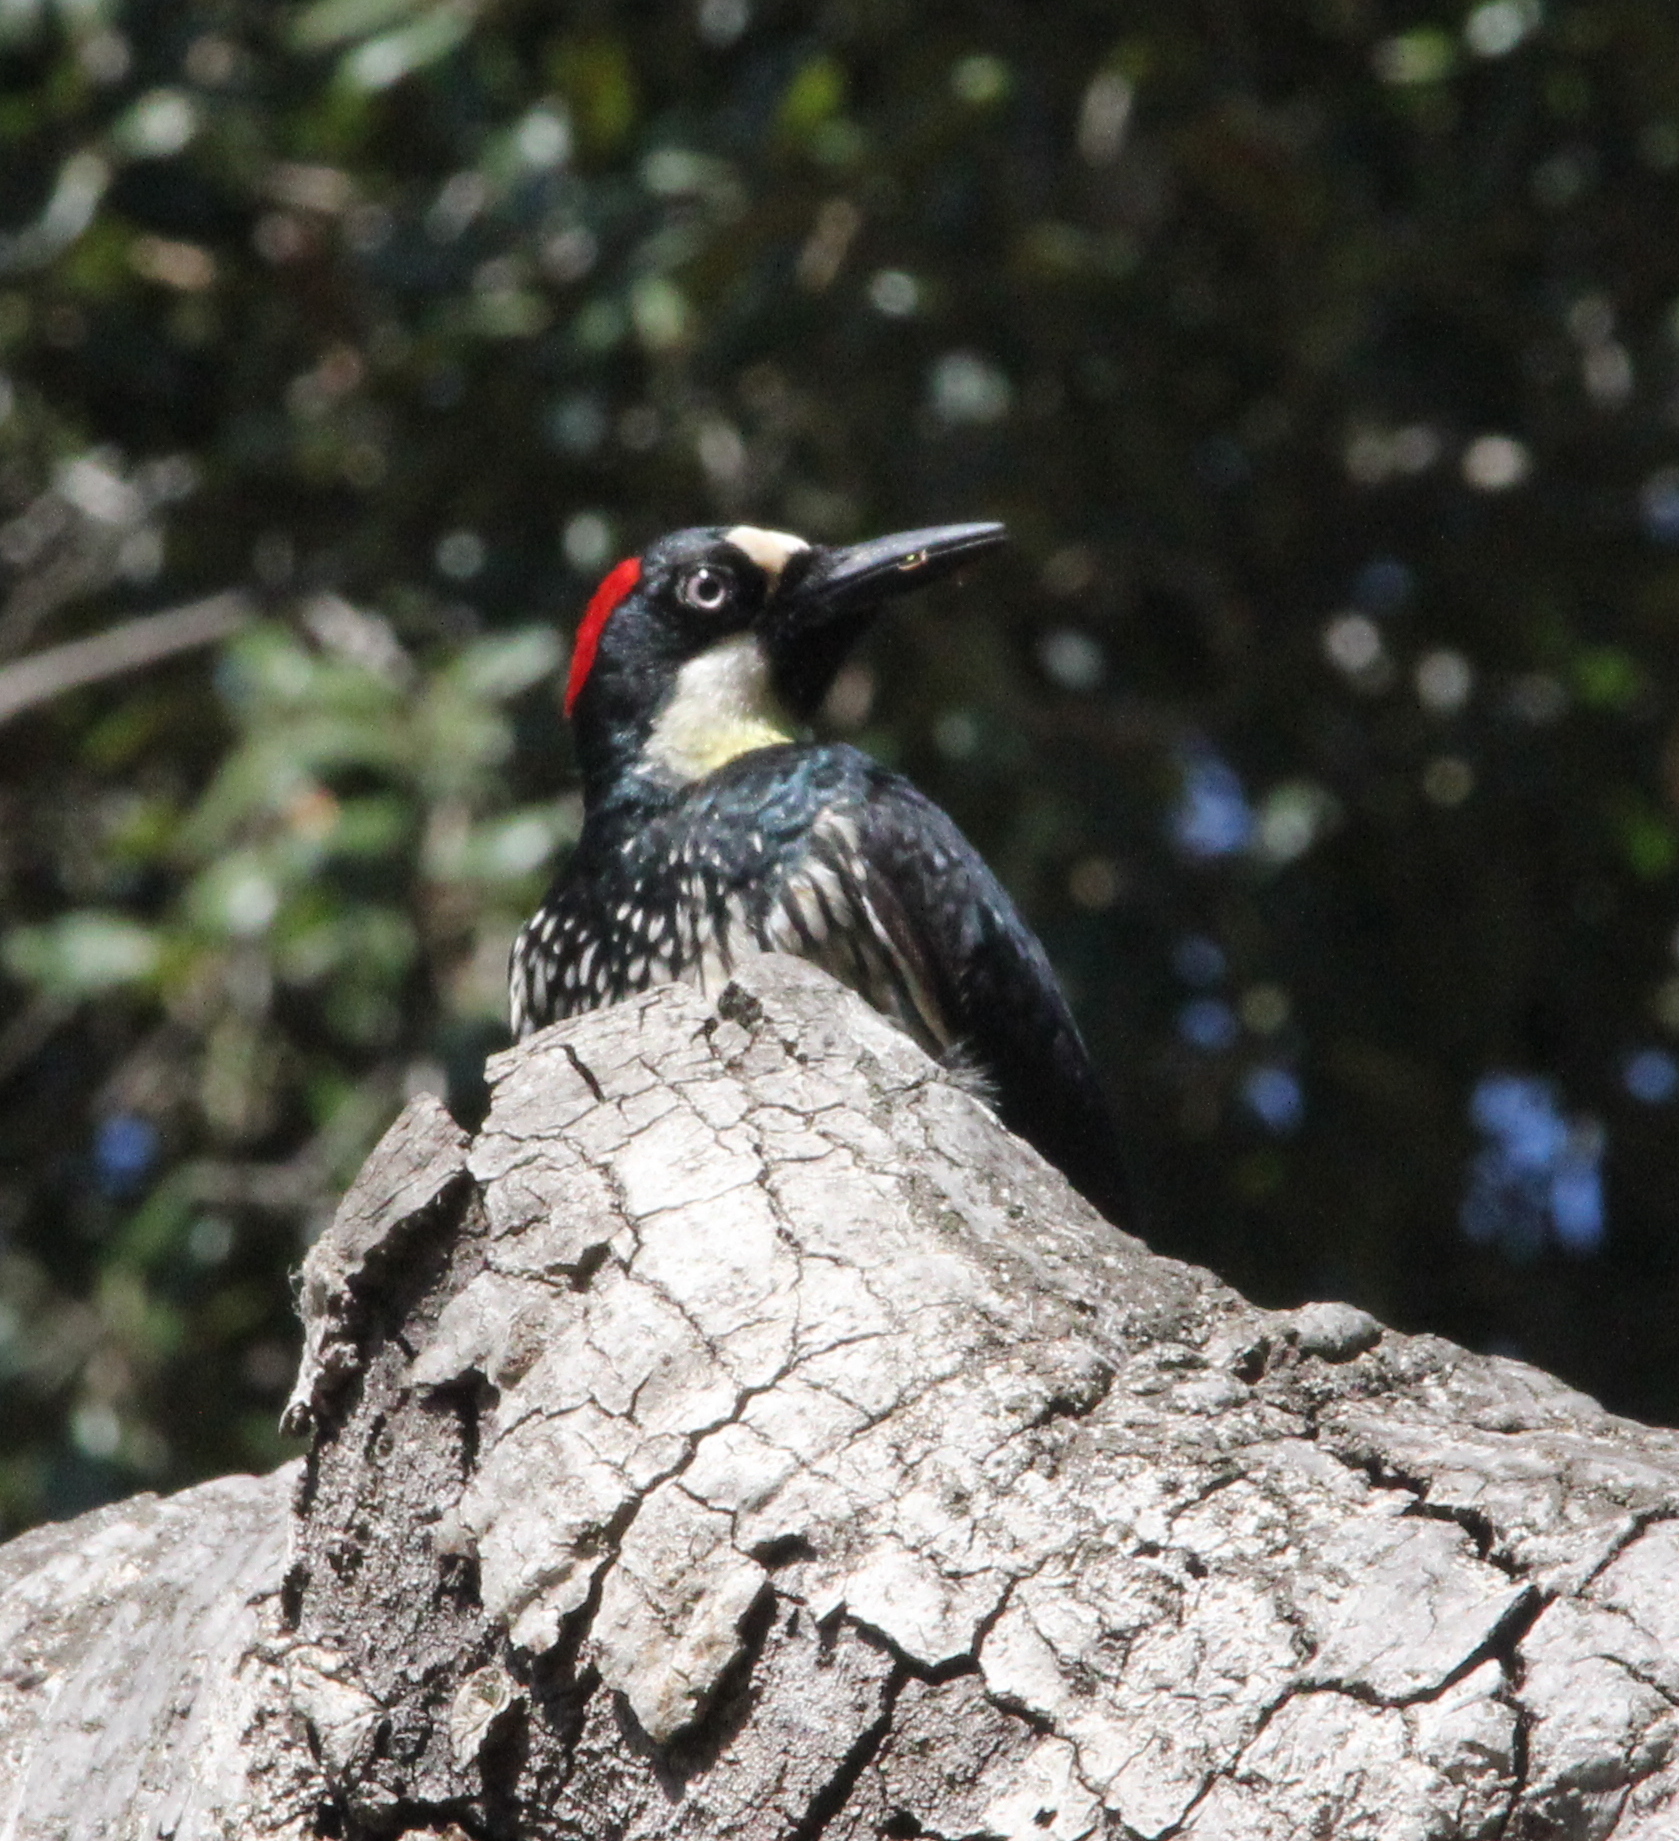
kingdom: Animalia
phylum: Chordata
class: Aves
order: Piciformes
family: Picidae
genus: Melanerpes
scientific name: Melanerpes formicivorus
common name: Acorn woodpecker
